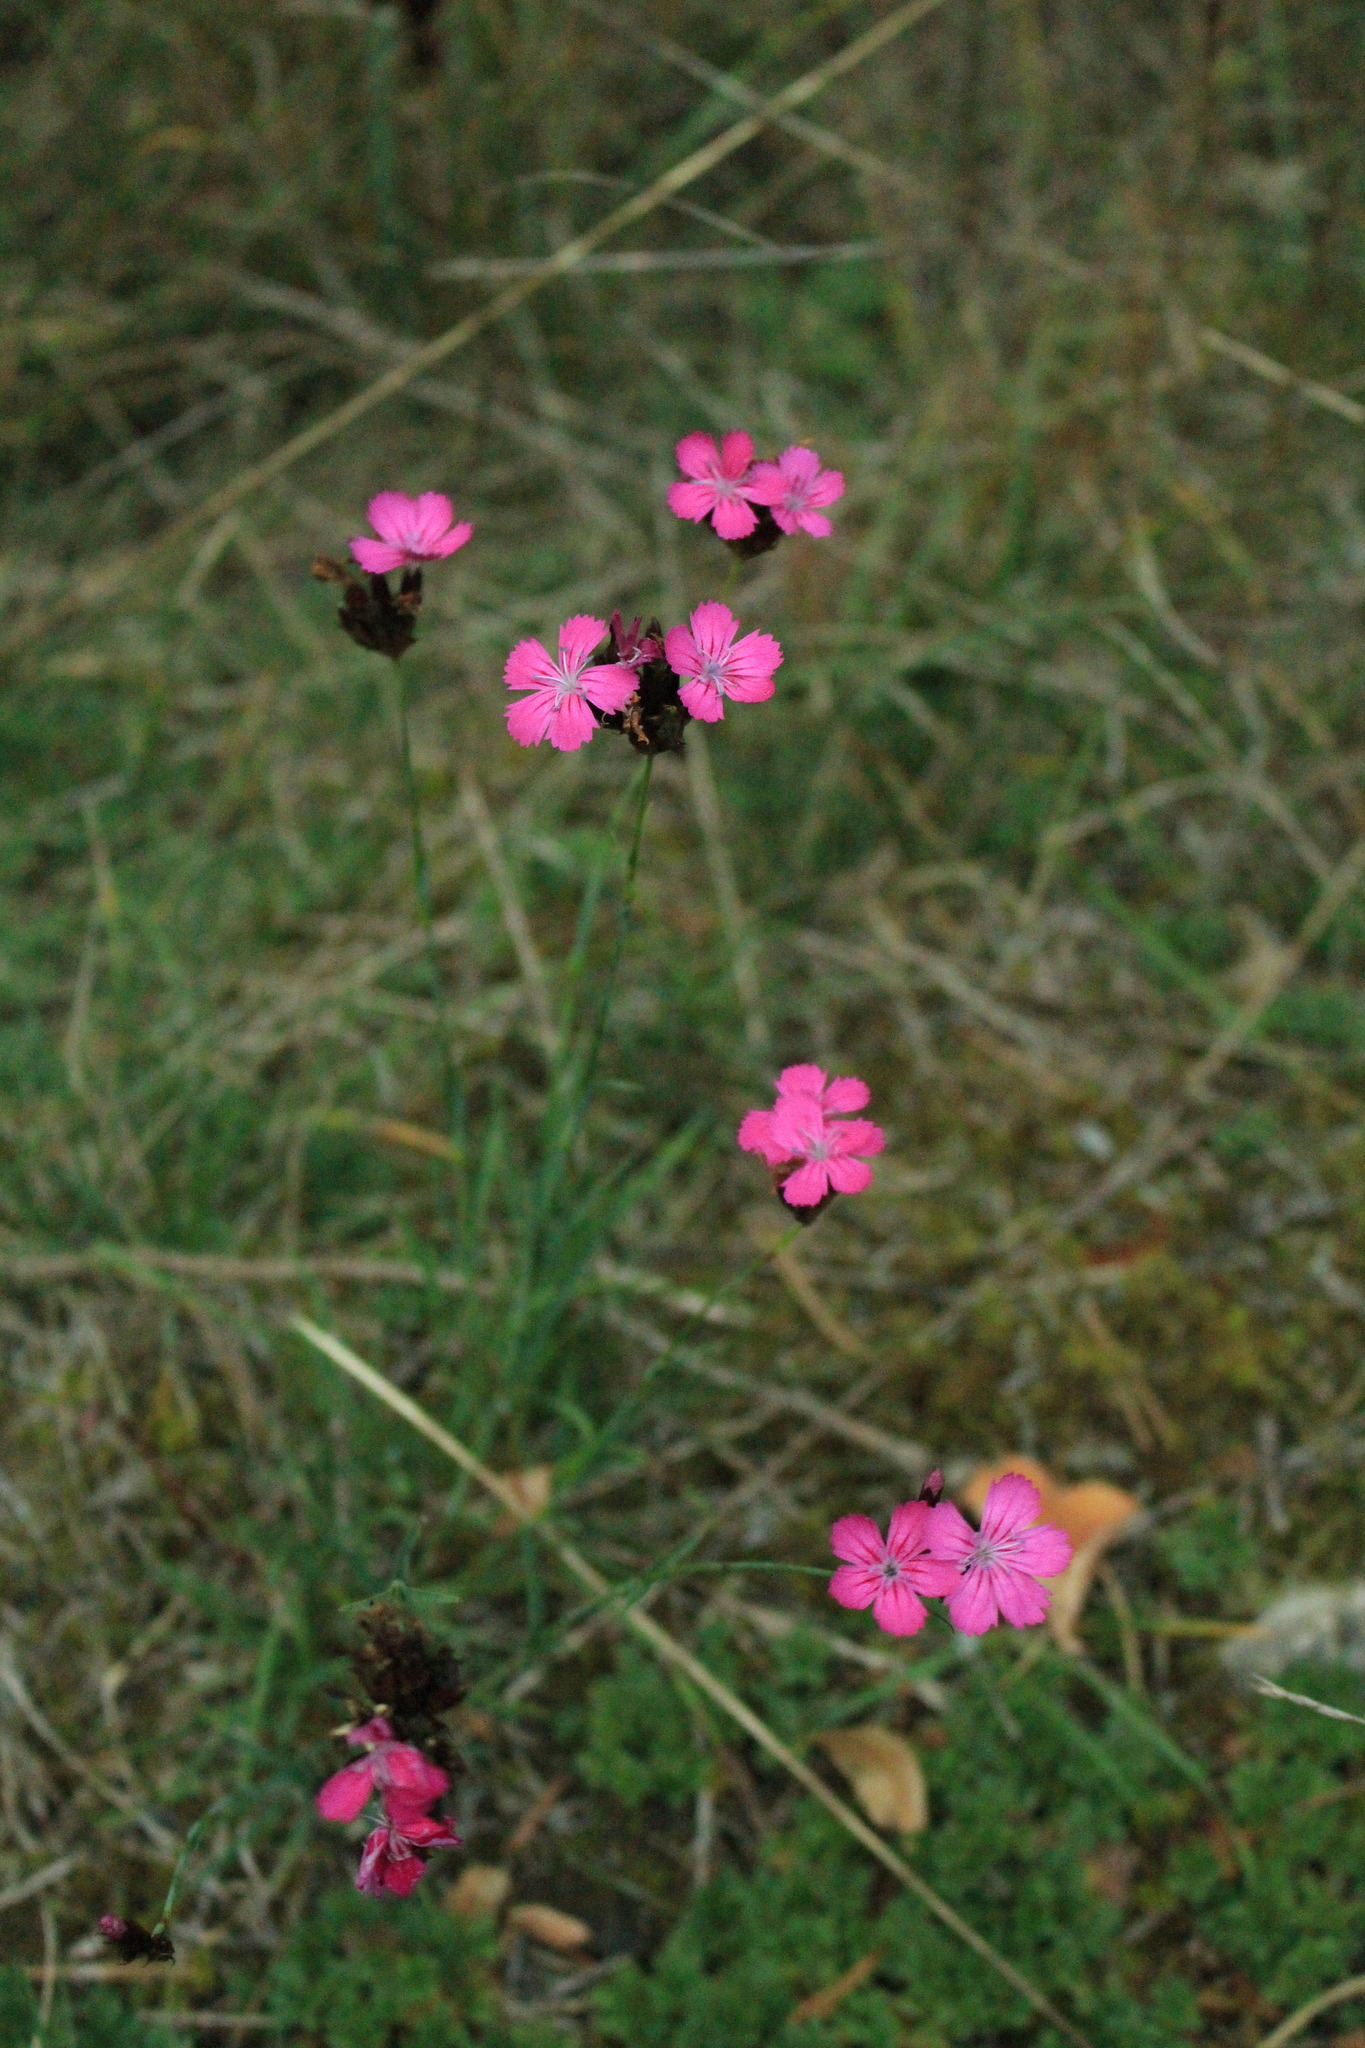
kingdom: Plantae
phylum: Tracheophyta
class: Magnoliopsida
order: Caryophyllales
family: Caryophyllaceae
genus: Dianthus
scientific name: Dianthus carthusianorum
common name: Carthusian pink
